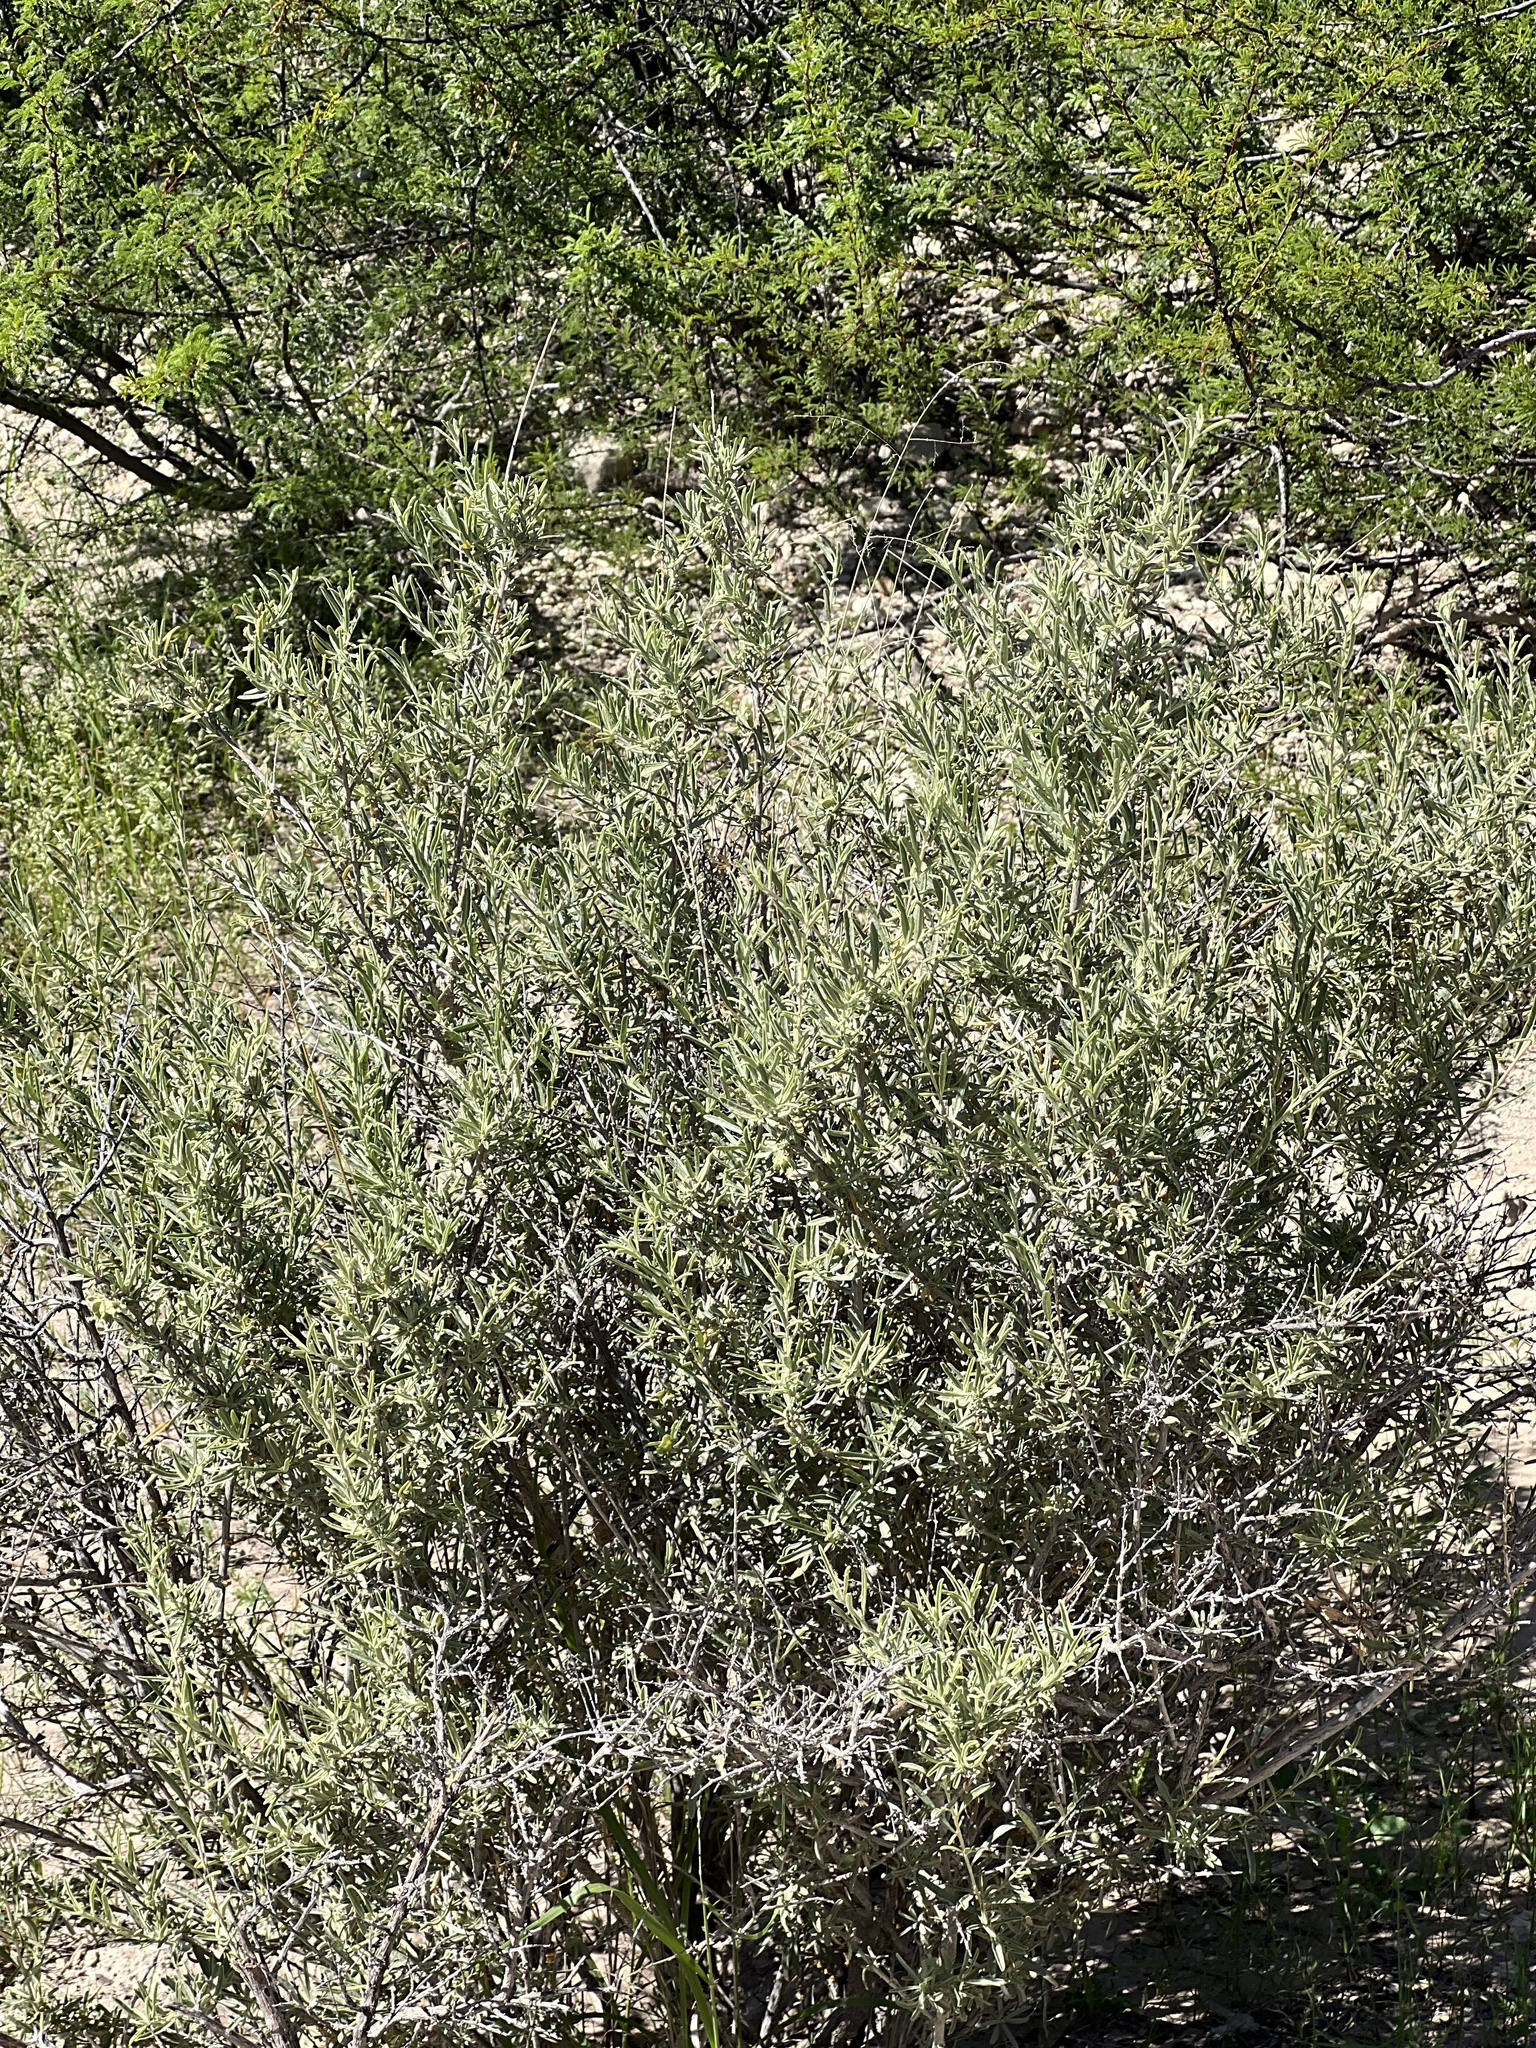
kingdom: Plantae
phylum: Tracheophyta
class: Magnoliopsida
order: Caryophyllales
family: Amaranthaceae
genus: Atriplex
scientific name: Atriplex canescens
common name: Four-wing saltbush
